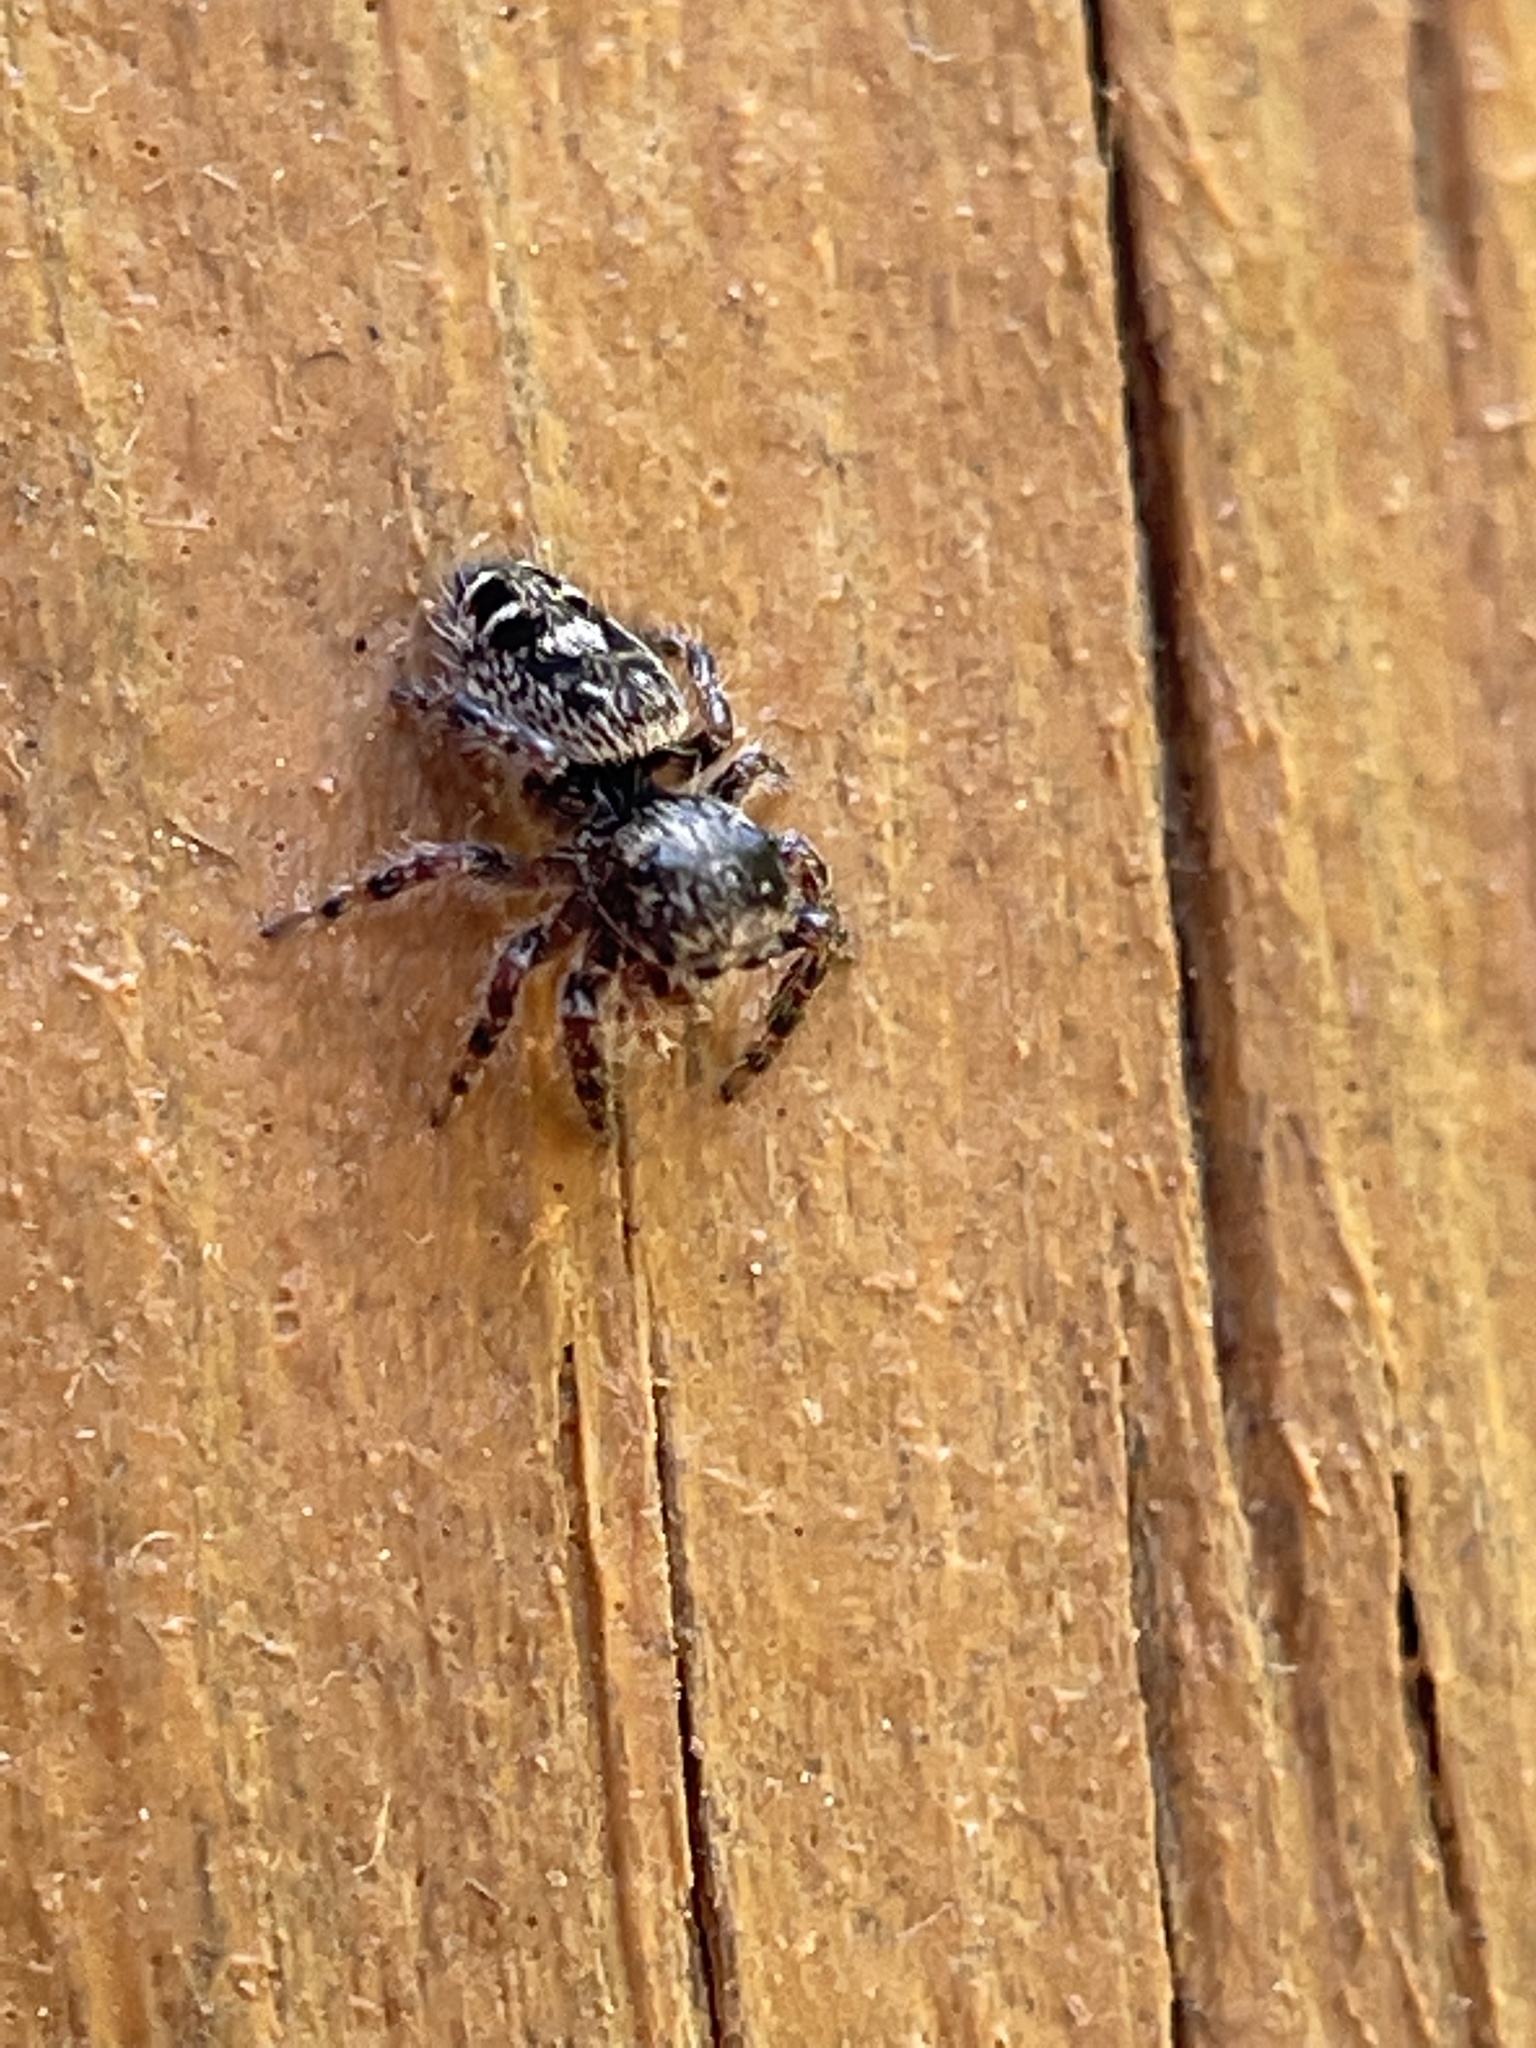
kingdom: Animalia
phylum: Arthropoda
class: Arachnida
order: Araneae
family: Salticidae
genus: Phidippus
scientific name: Phidippus putnami
